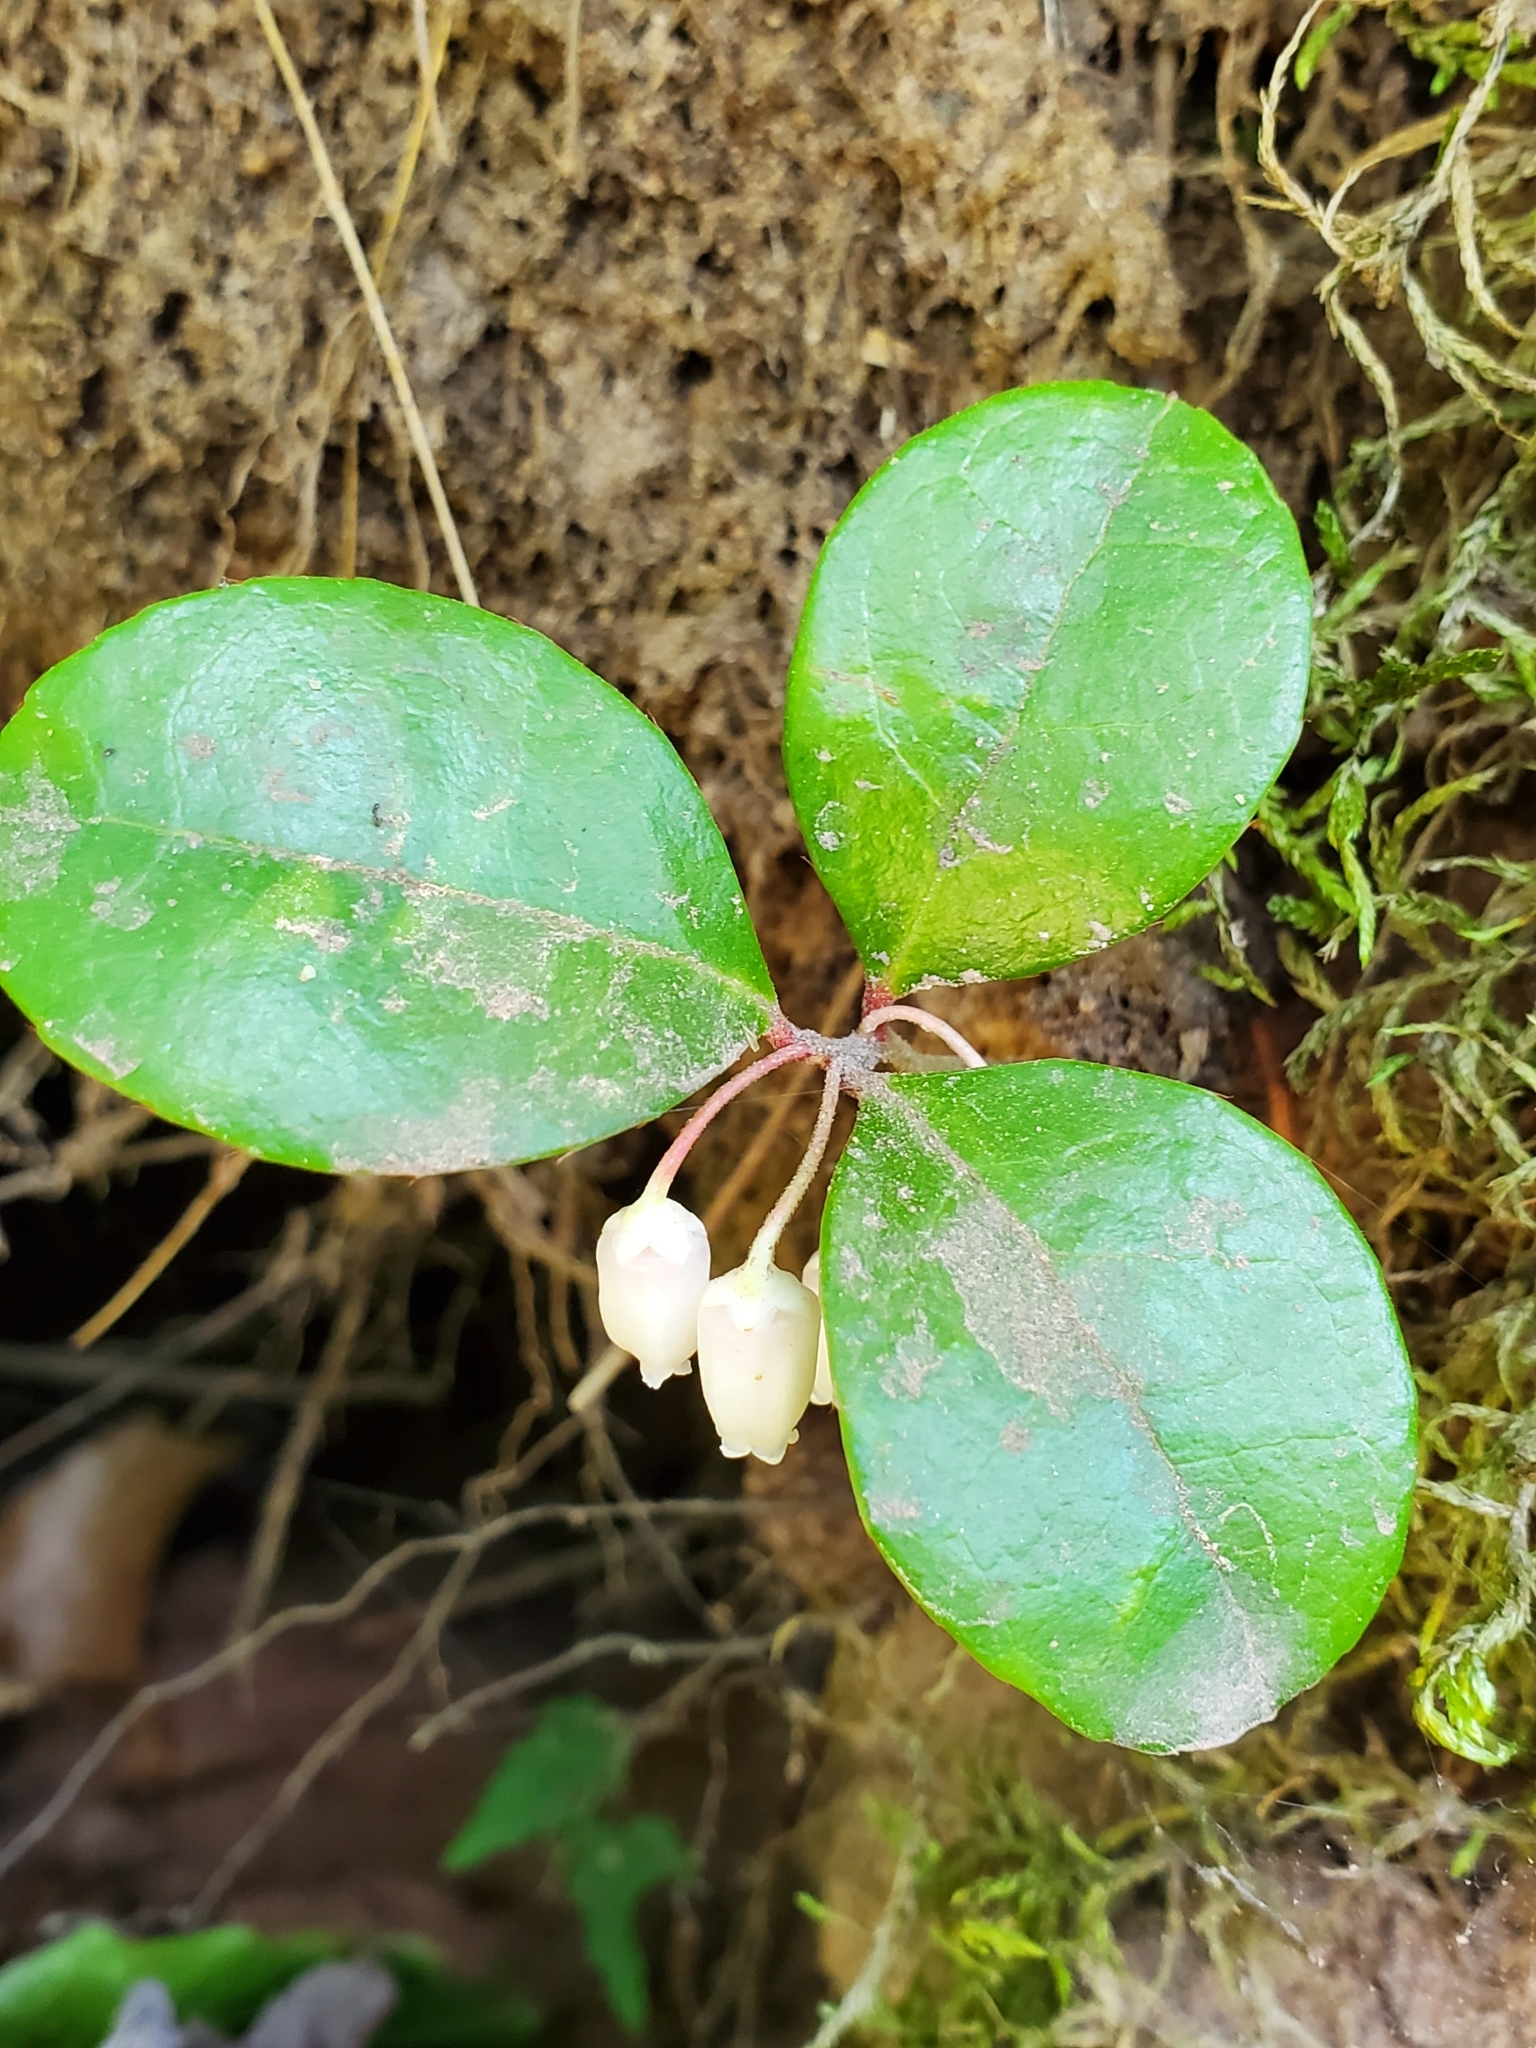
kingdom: Plantae
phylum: Tracheophyta
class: Magnoliopsida
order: Ericales
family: Ericaceae
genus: Gaultheria
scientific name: Gaultheria procumbens
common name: Checkerberry
